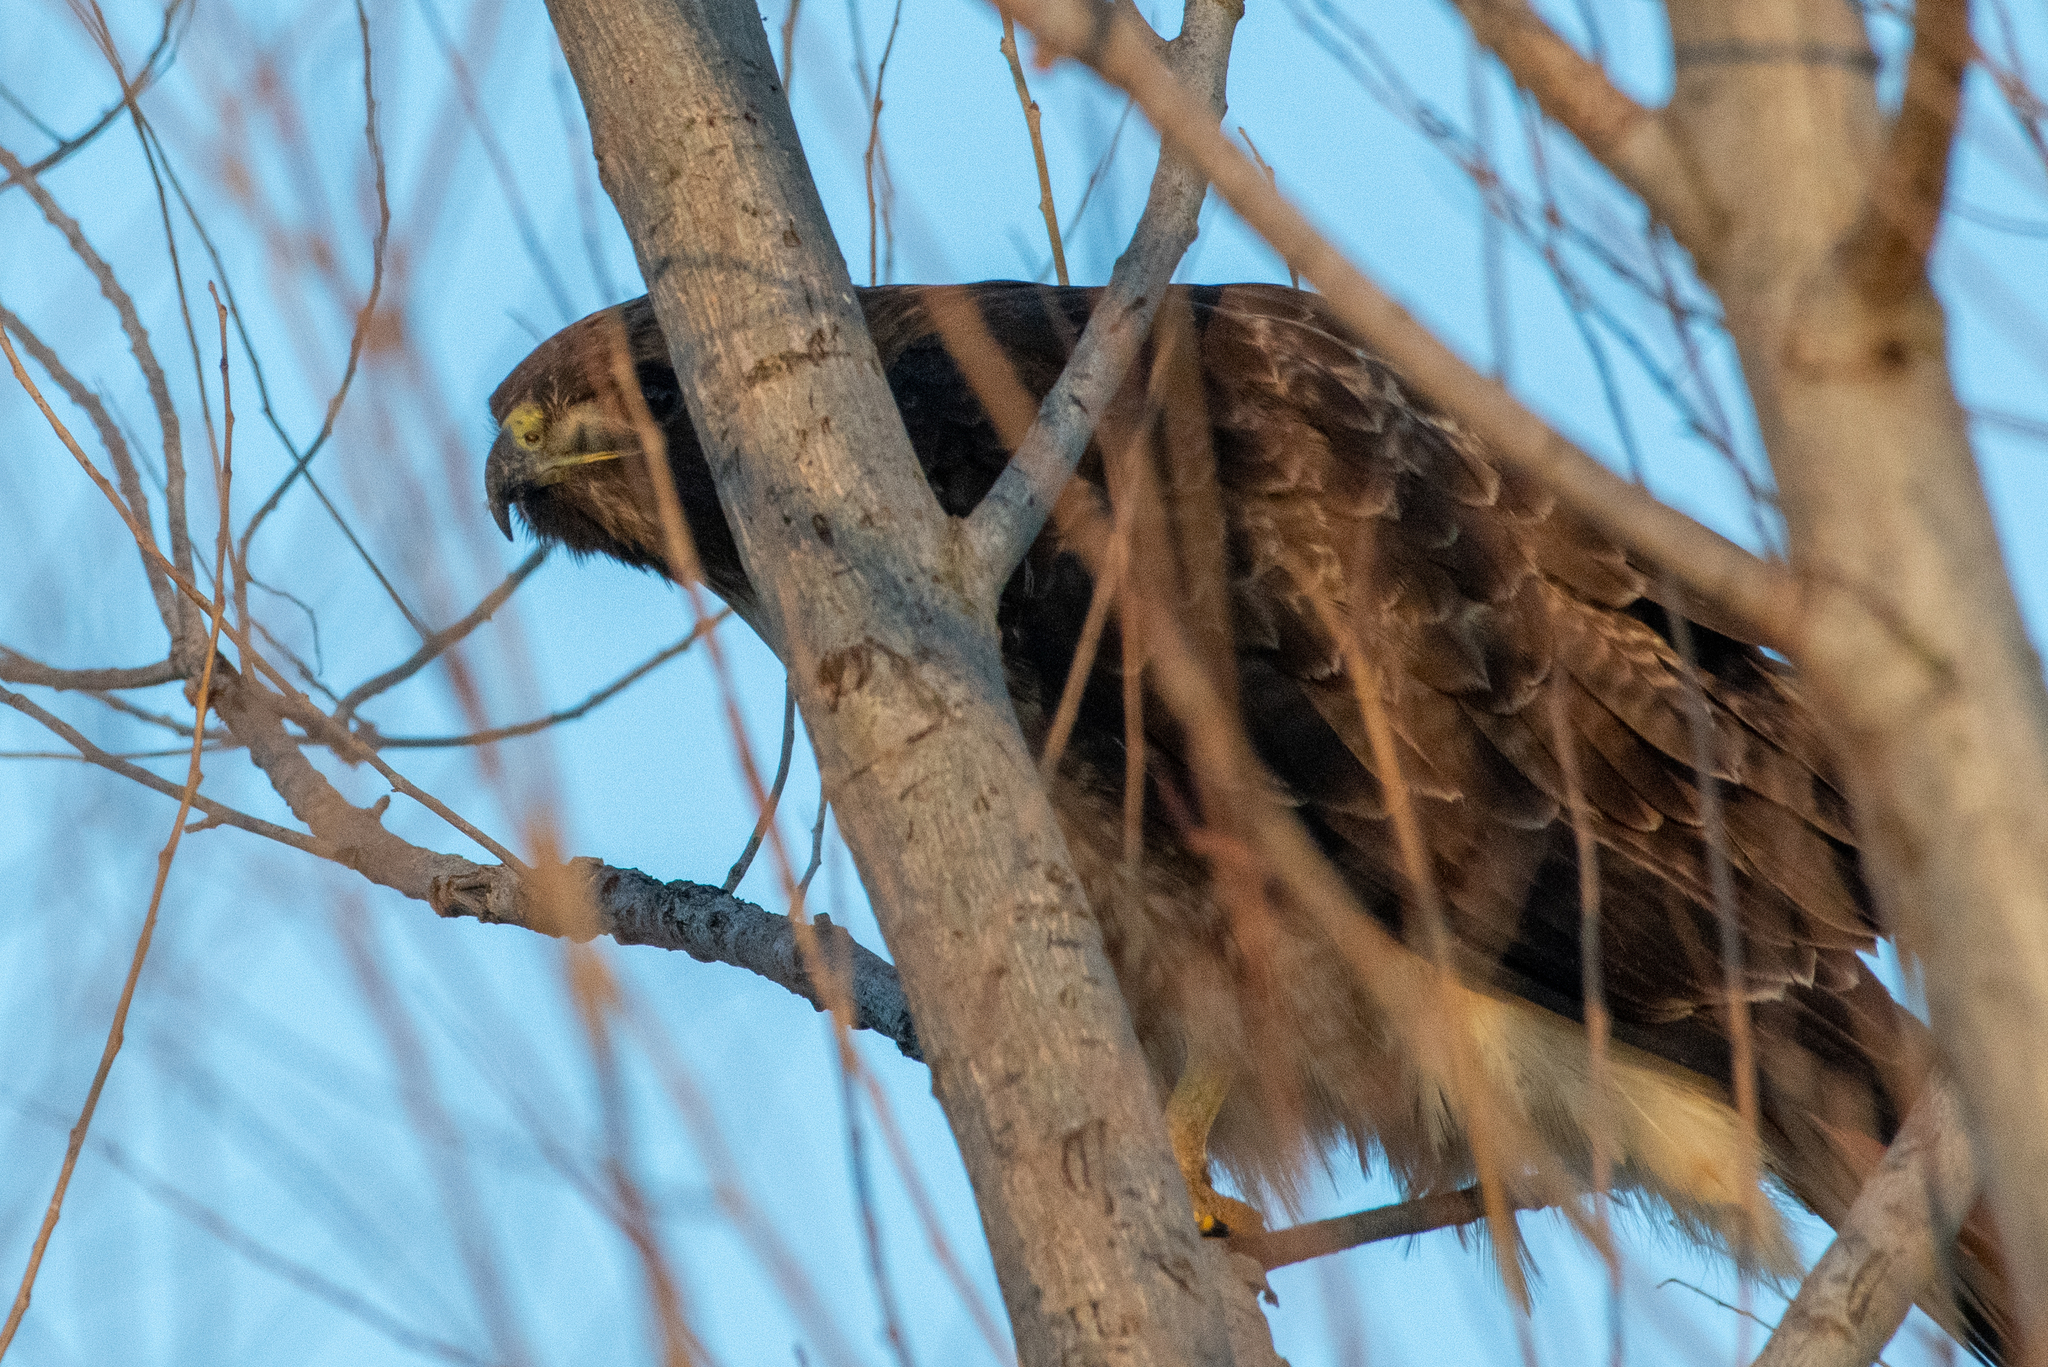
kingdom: Animalia
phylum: Chordata
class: Aves
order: Accipitriformes
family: Accipitridae
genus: Buteo
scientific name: Buteo jamaicensis
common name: Red-tailed hawk
